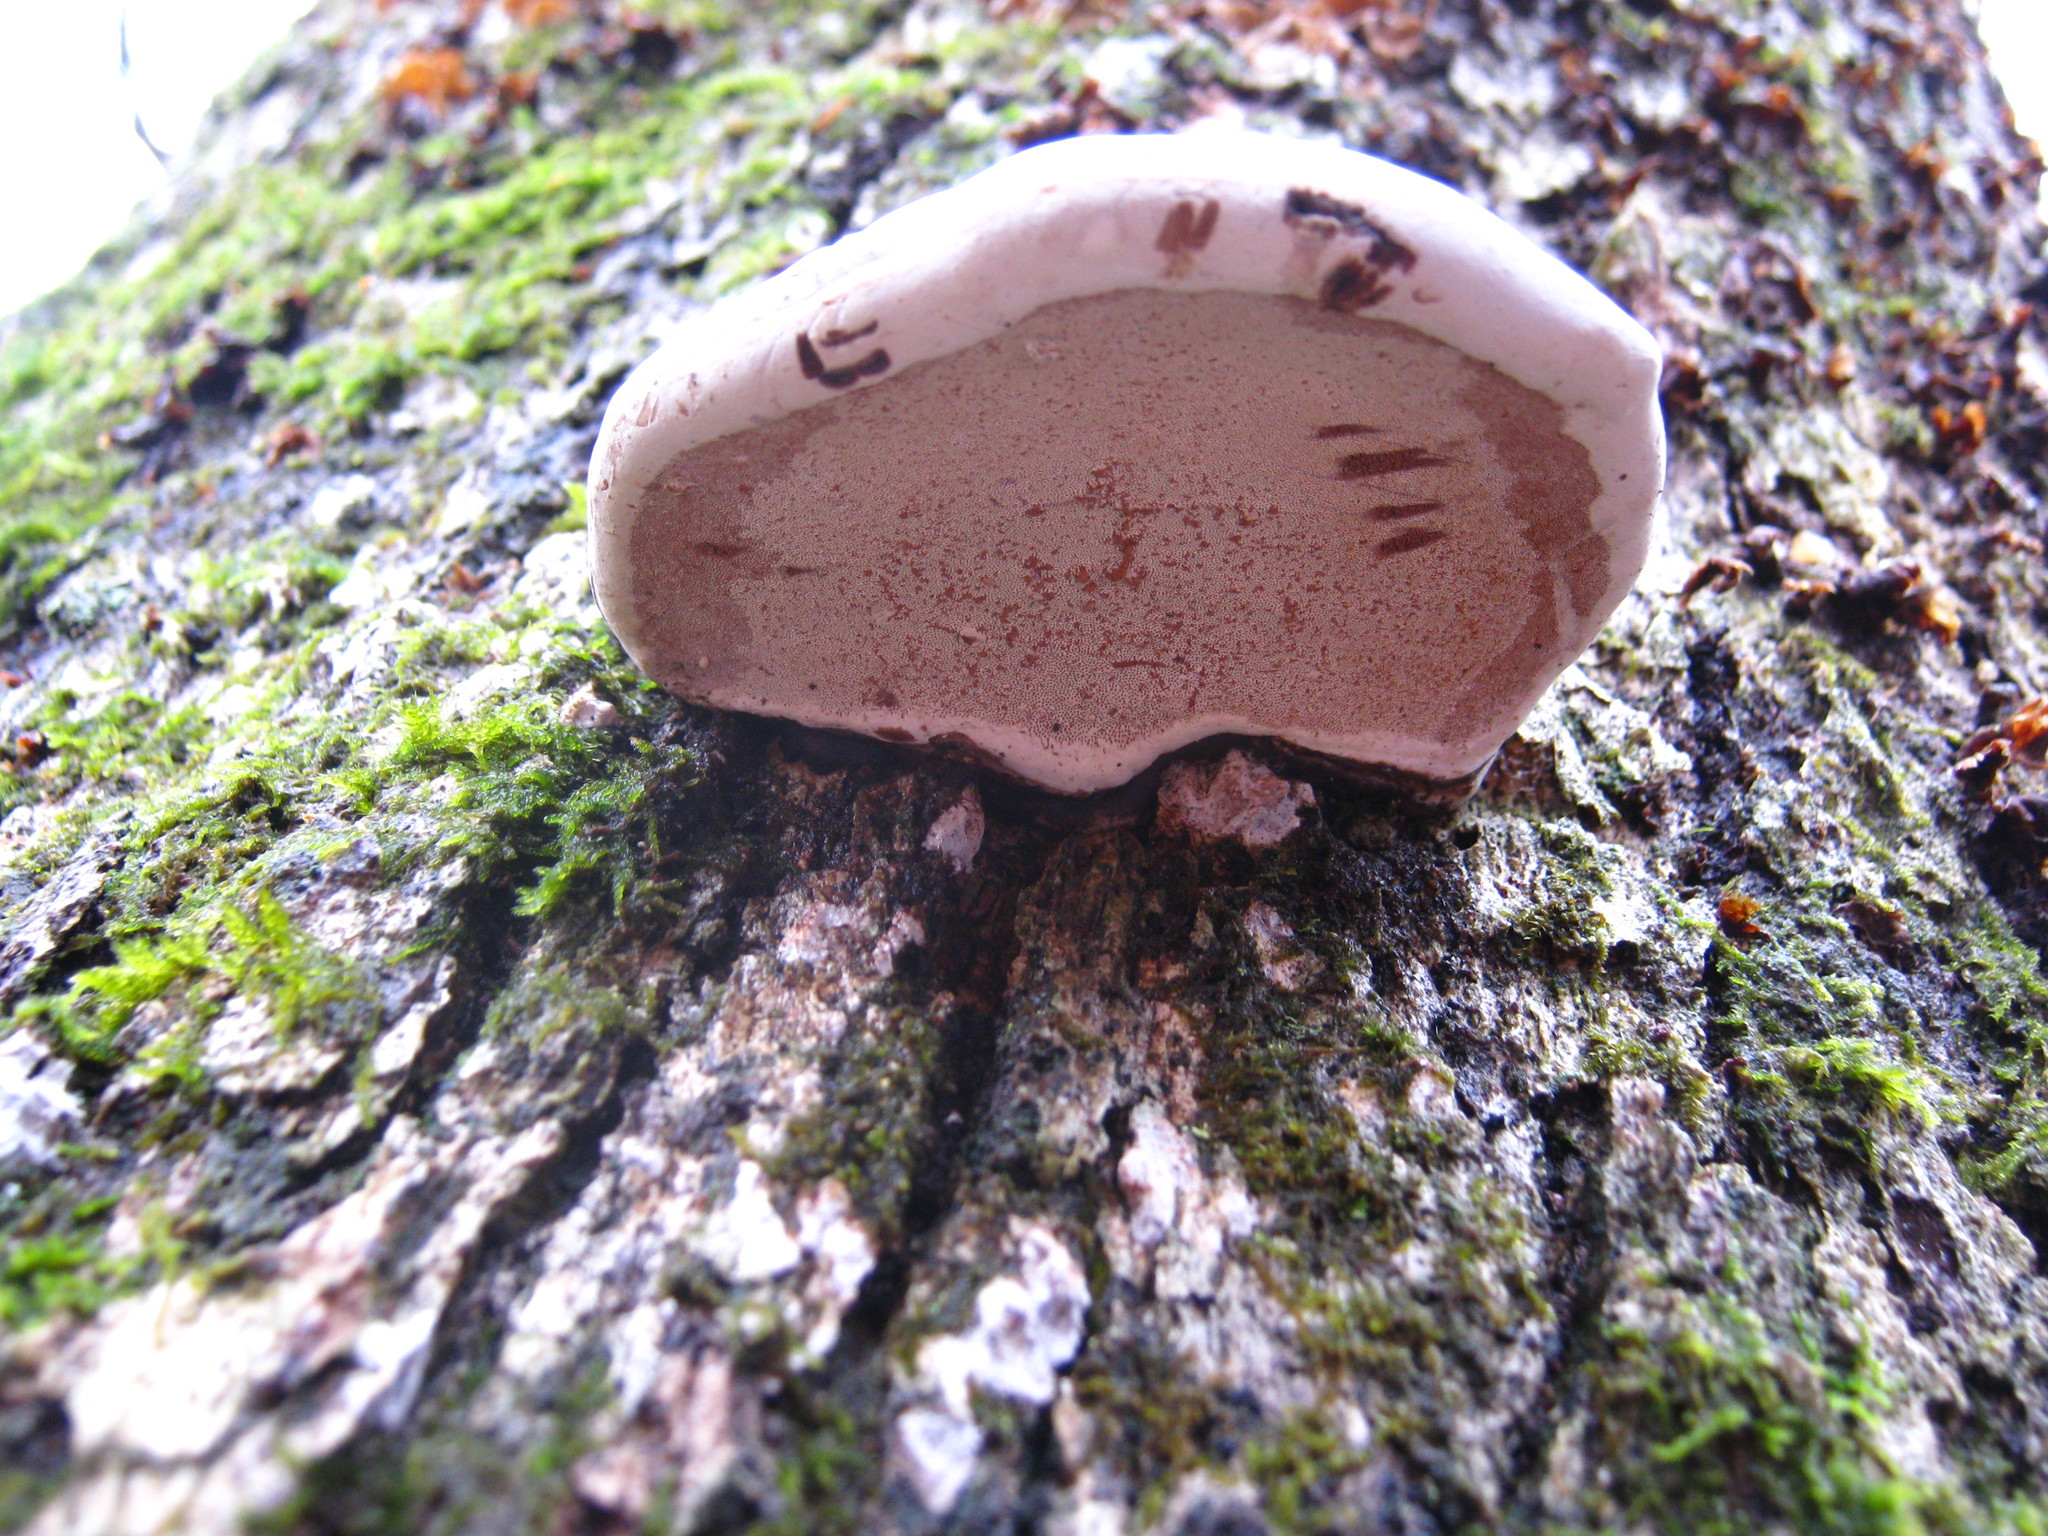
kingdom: Fungi
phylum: Basidiomycota
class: Agaricomycetes
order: Polyporales
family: Polyporaceae
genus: Ganoderma
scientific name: Ganoderma applanatum
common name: Artist's bracket
